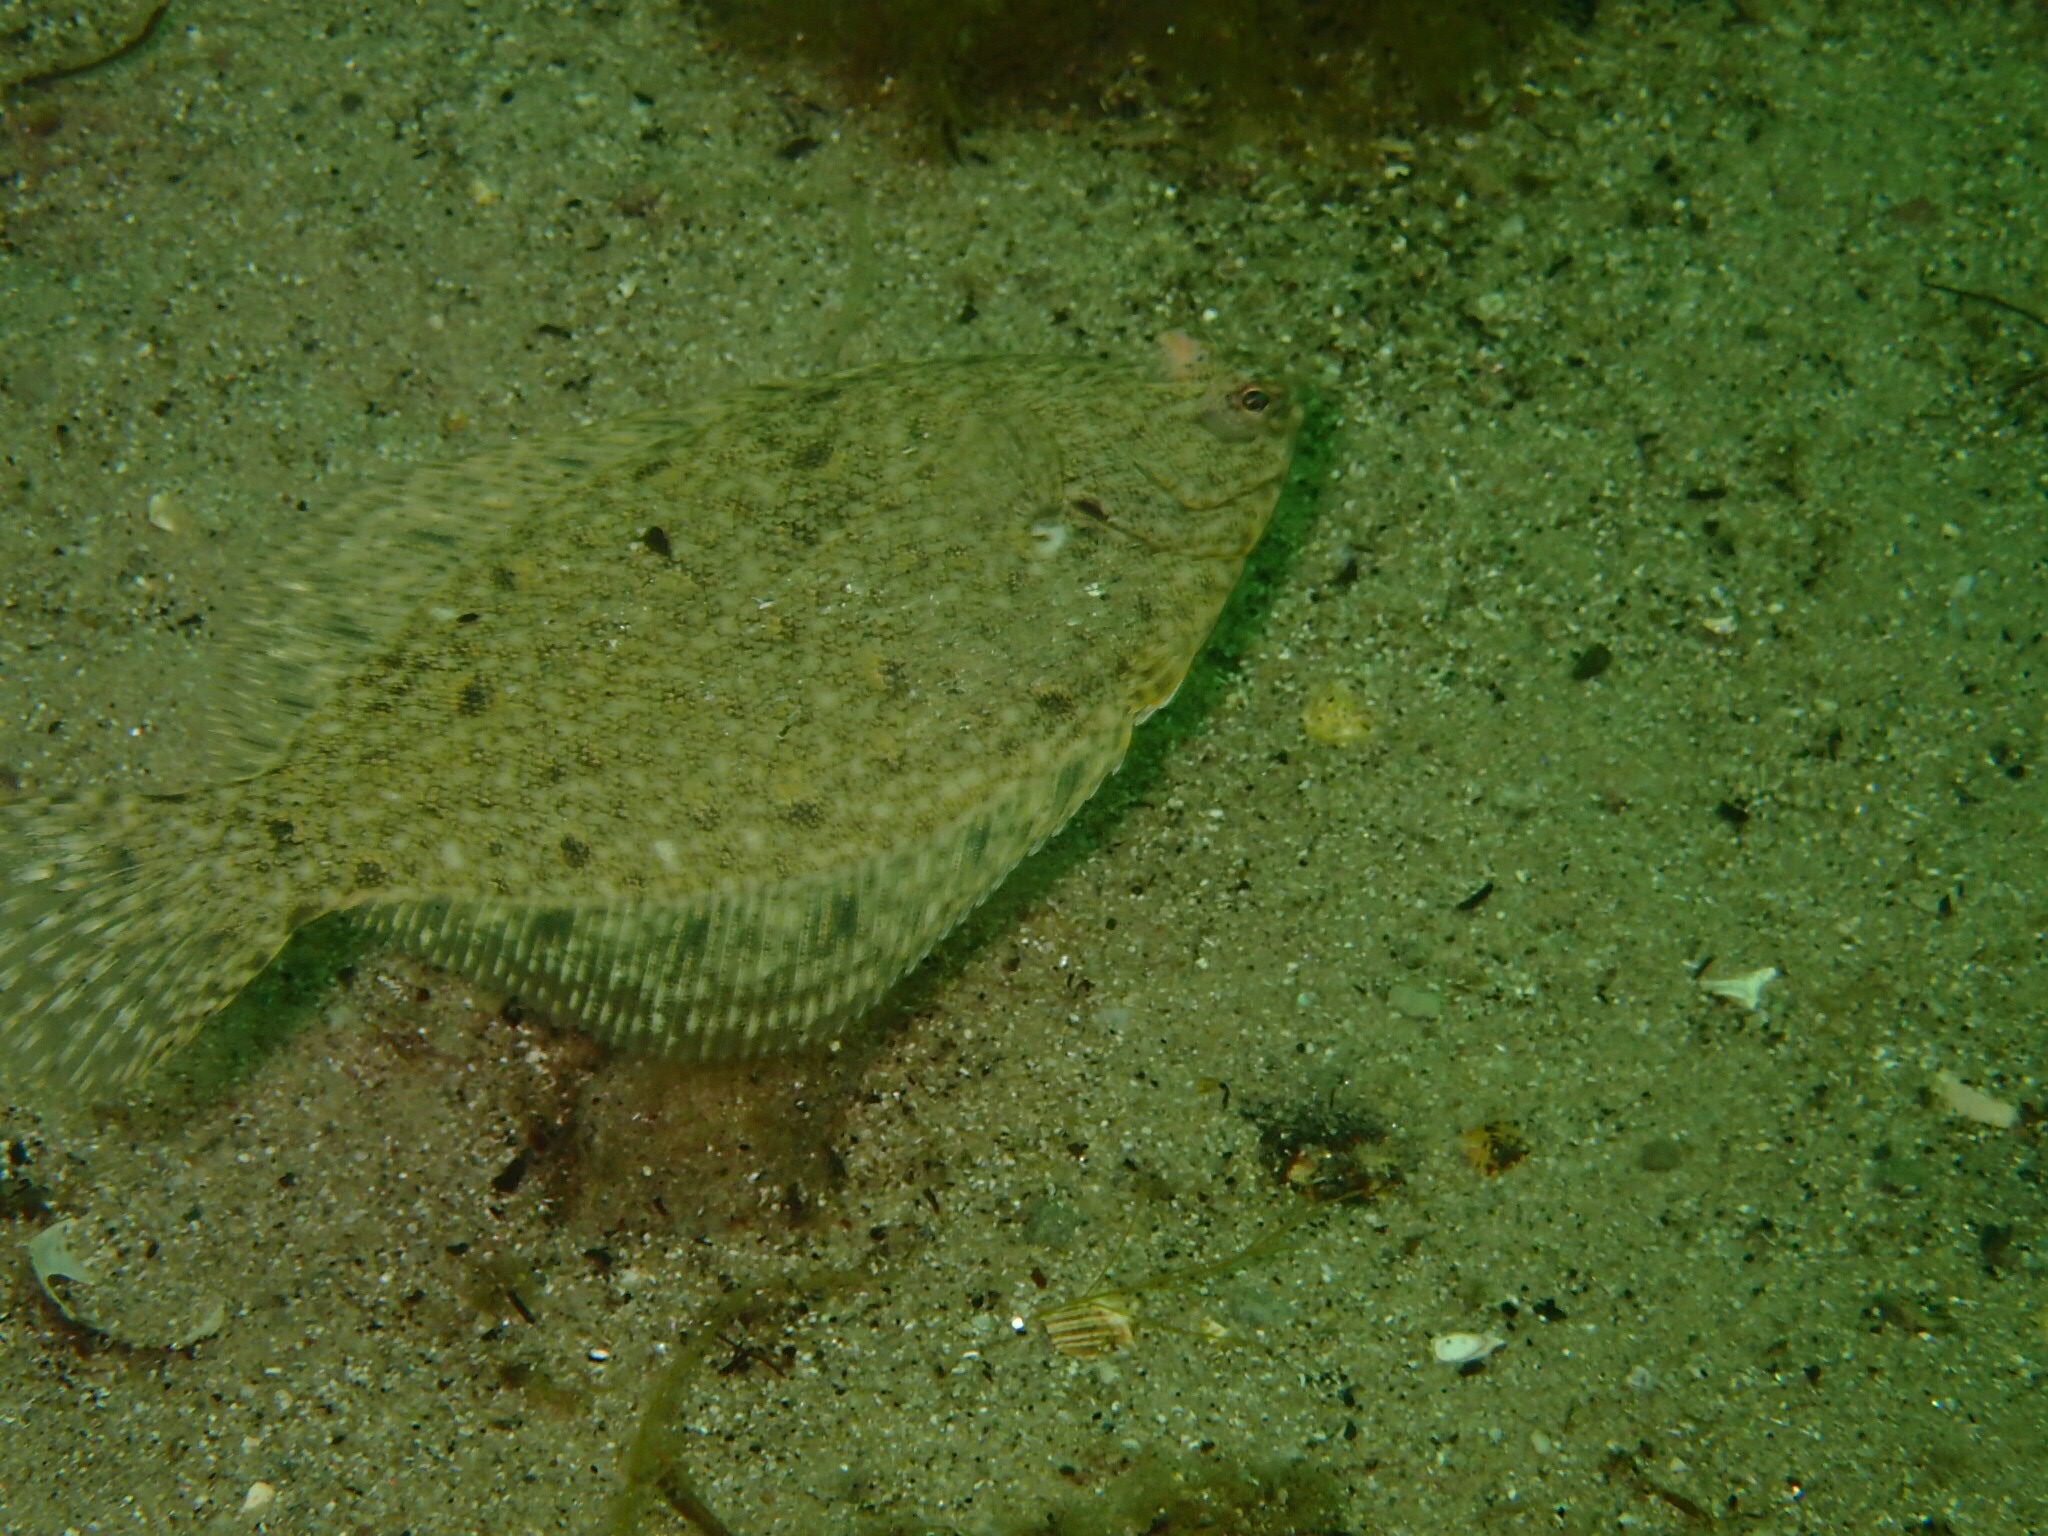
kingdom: Animalia
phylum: Chordata
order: Pleuronectiformes
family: Pleuronectidae
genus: Pseudopleuronectes
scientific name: Pseudopleuronectes americanus
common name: Black backs
